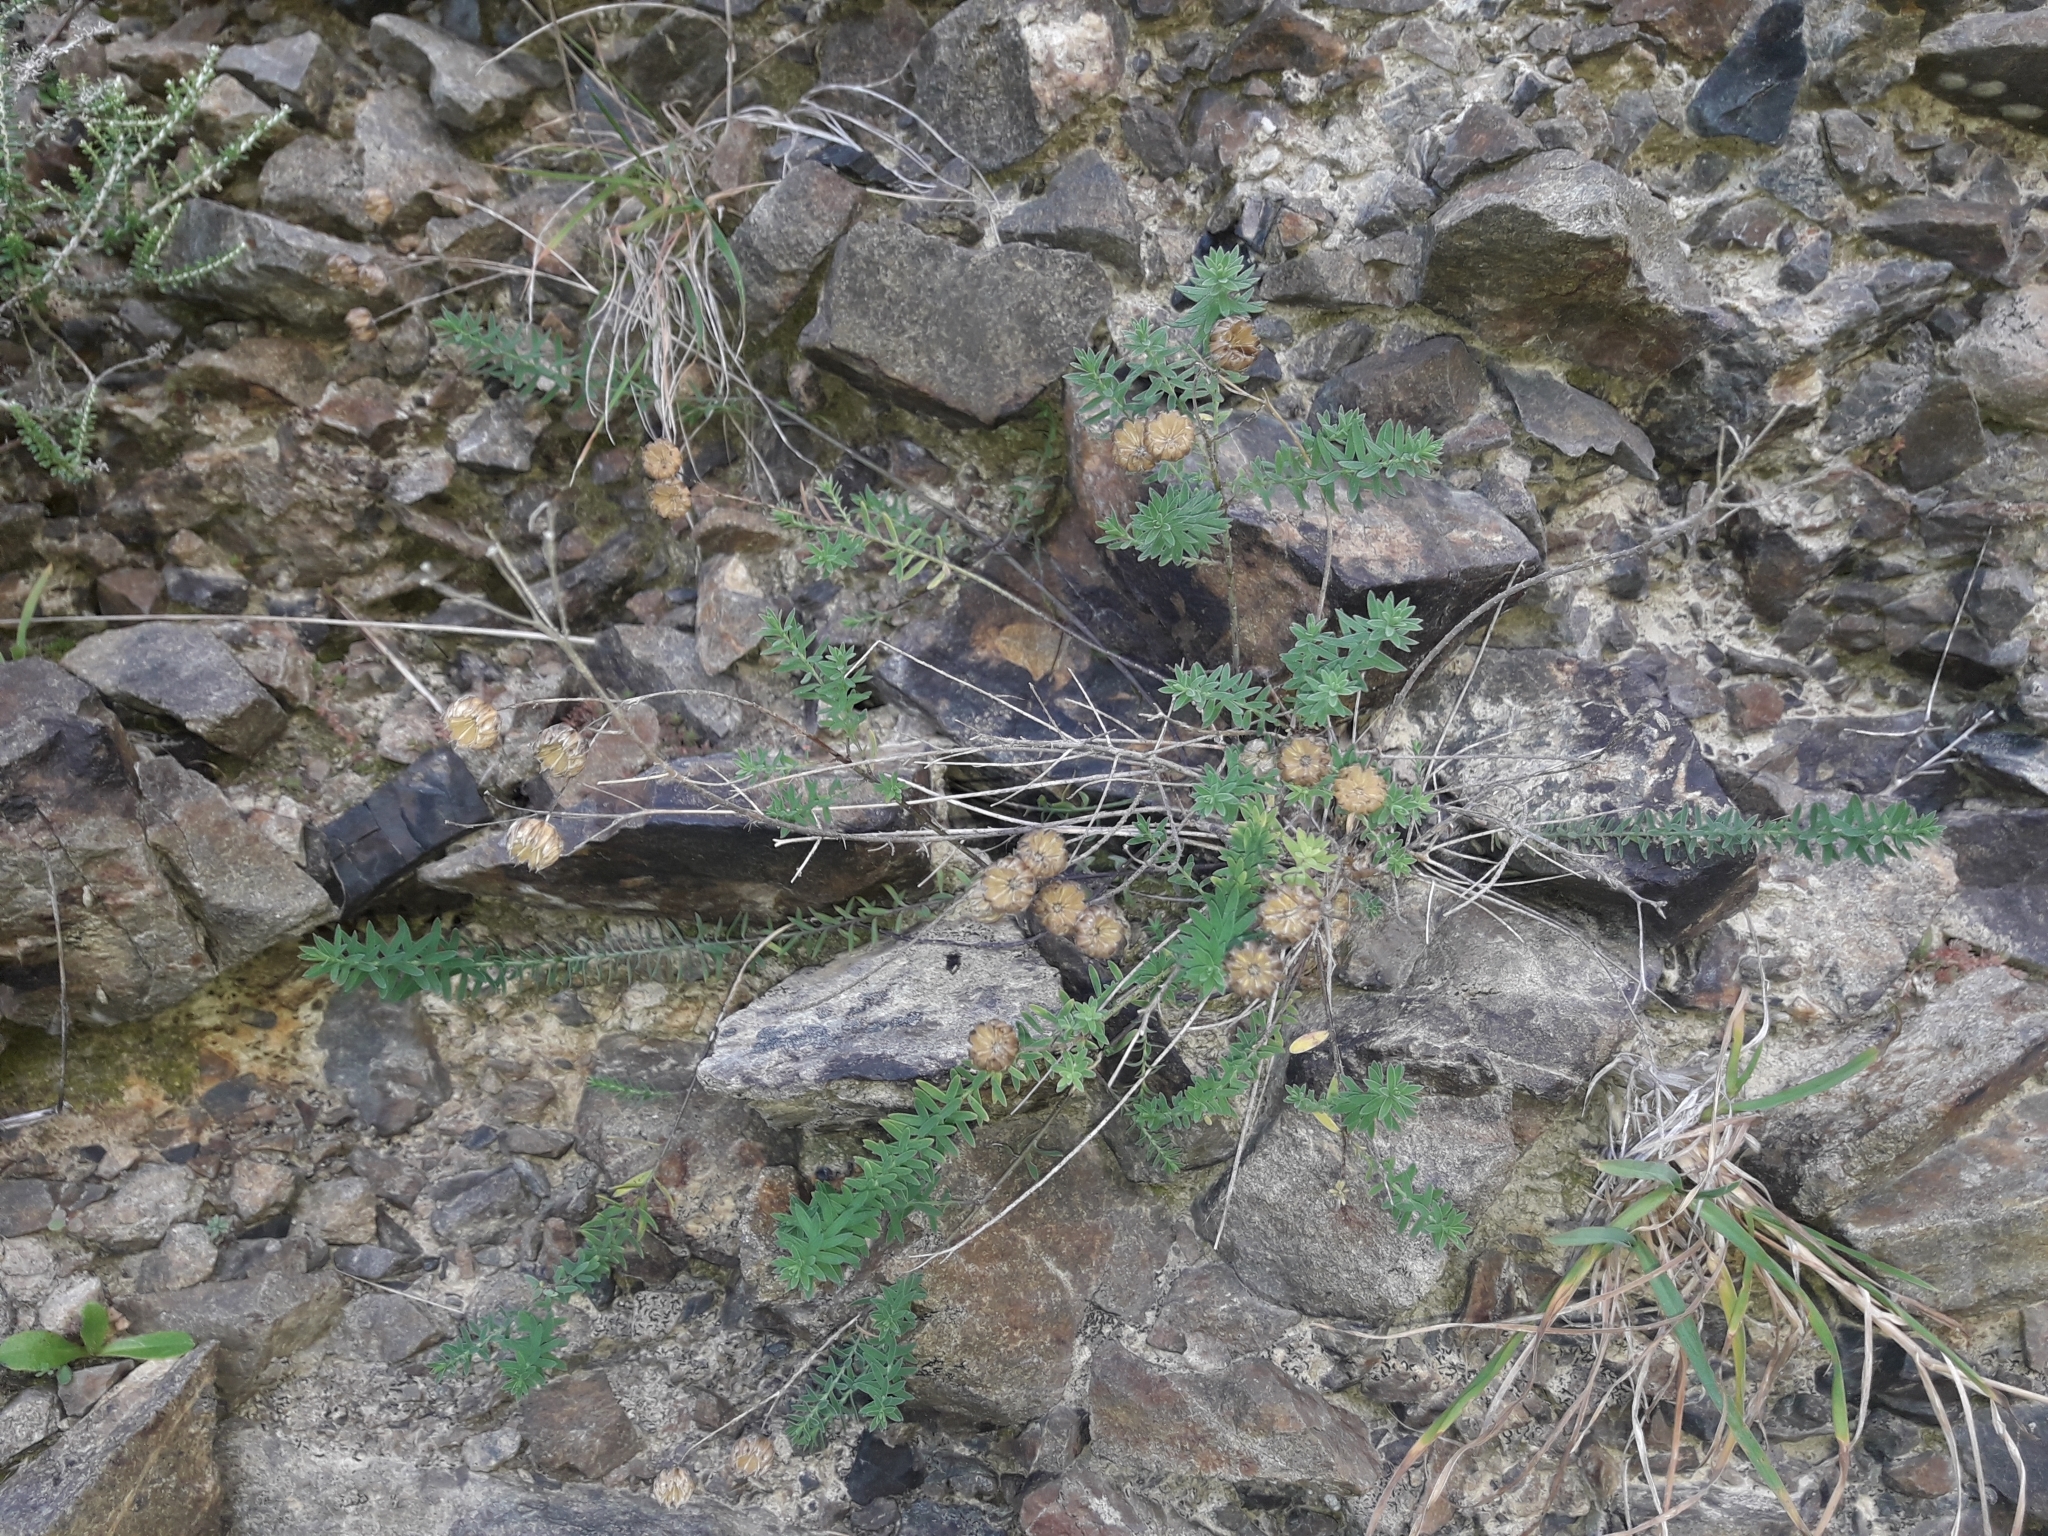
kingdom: Plantae
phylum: Tracheophyta
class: Magnoliopsida
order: Malpighiales
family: Linaceae
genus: Linum
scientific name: Linum monogynum
